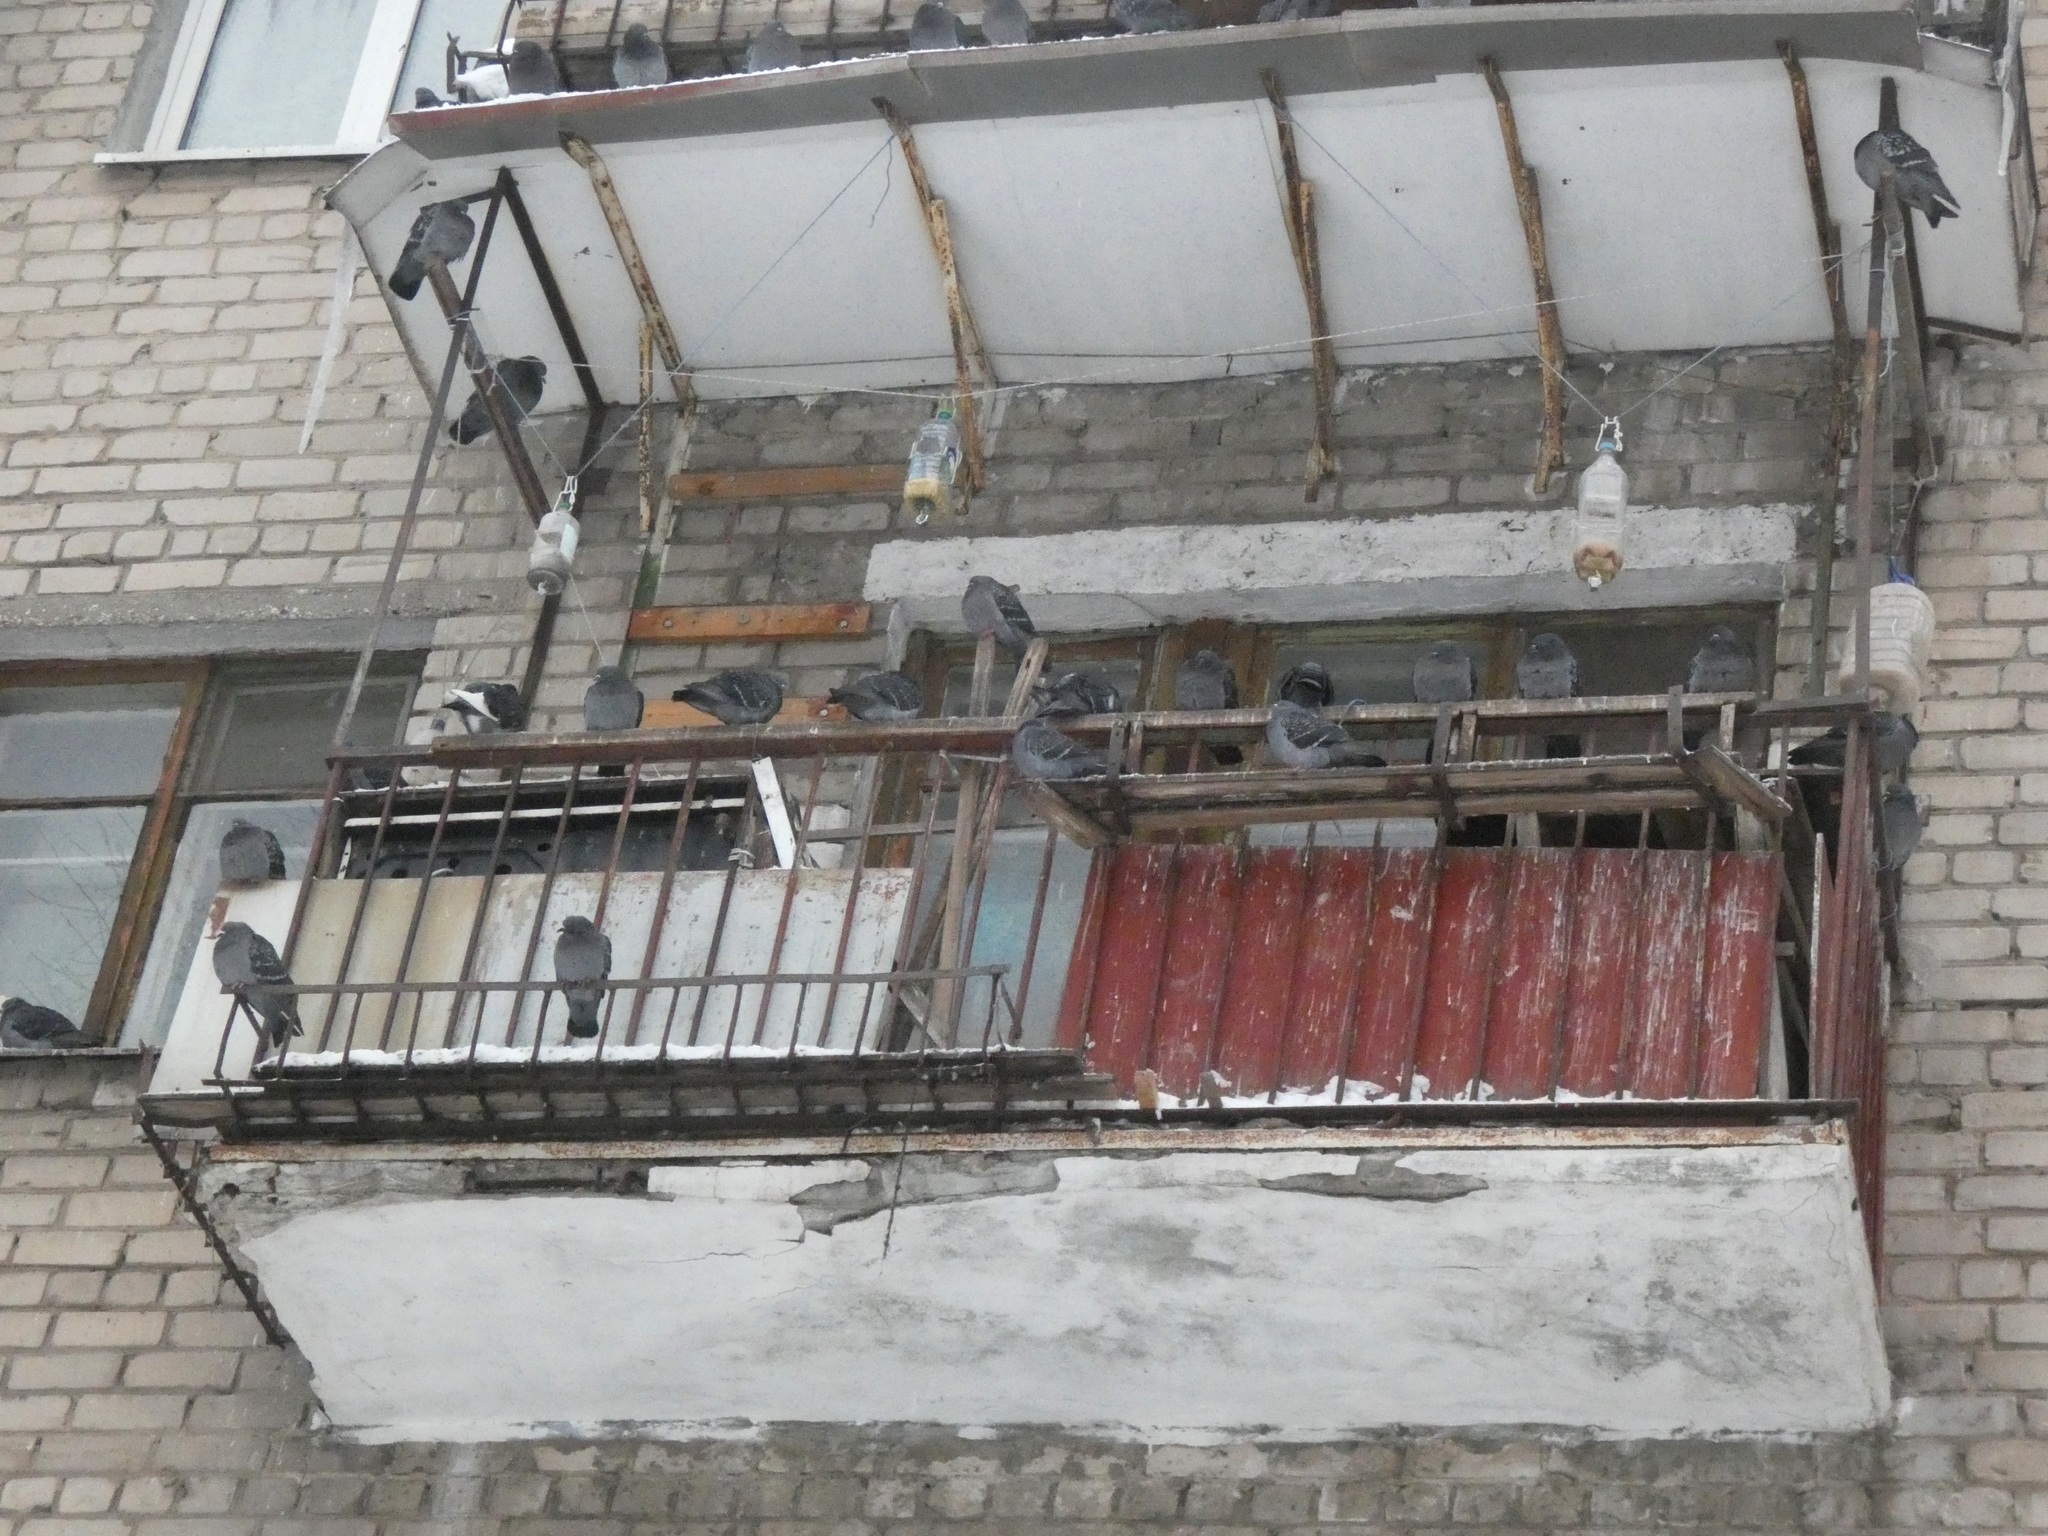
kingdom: Animalia
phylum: Chordata
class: Aves
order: Columbiformes
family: Columbidae
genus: Columba
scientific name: Columba livia
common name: Rock pigeon
